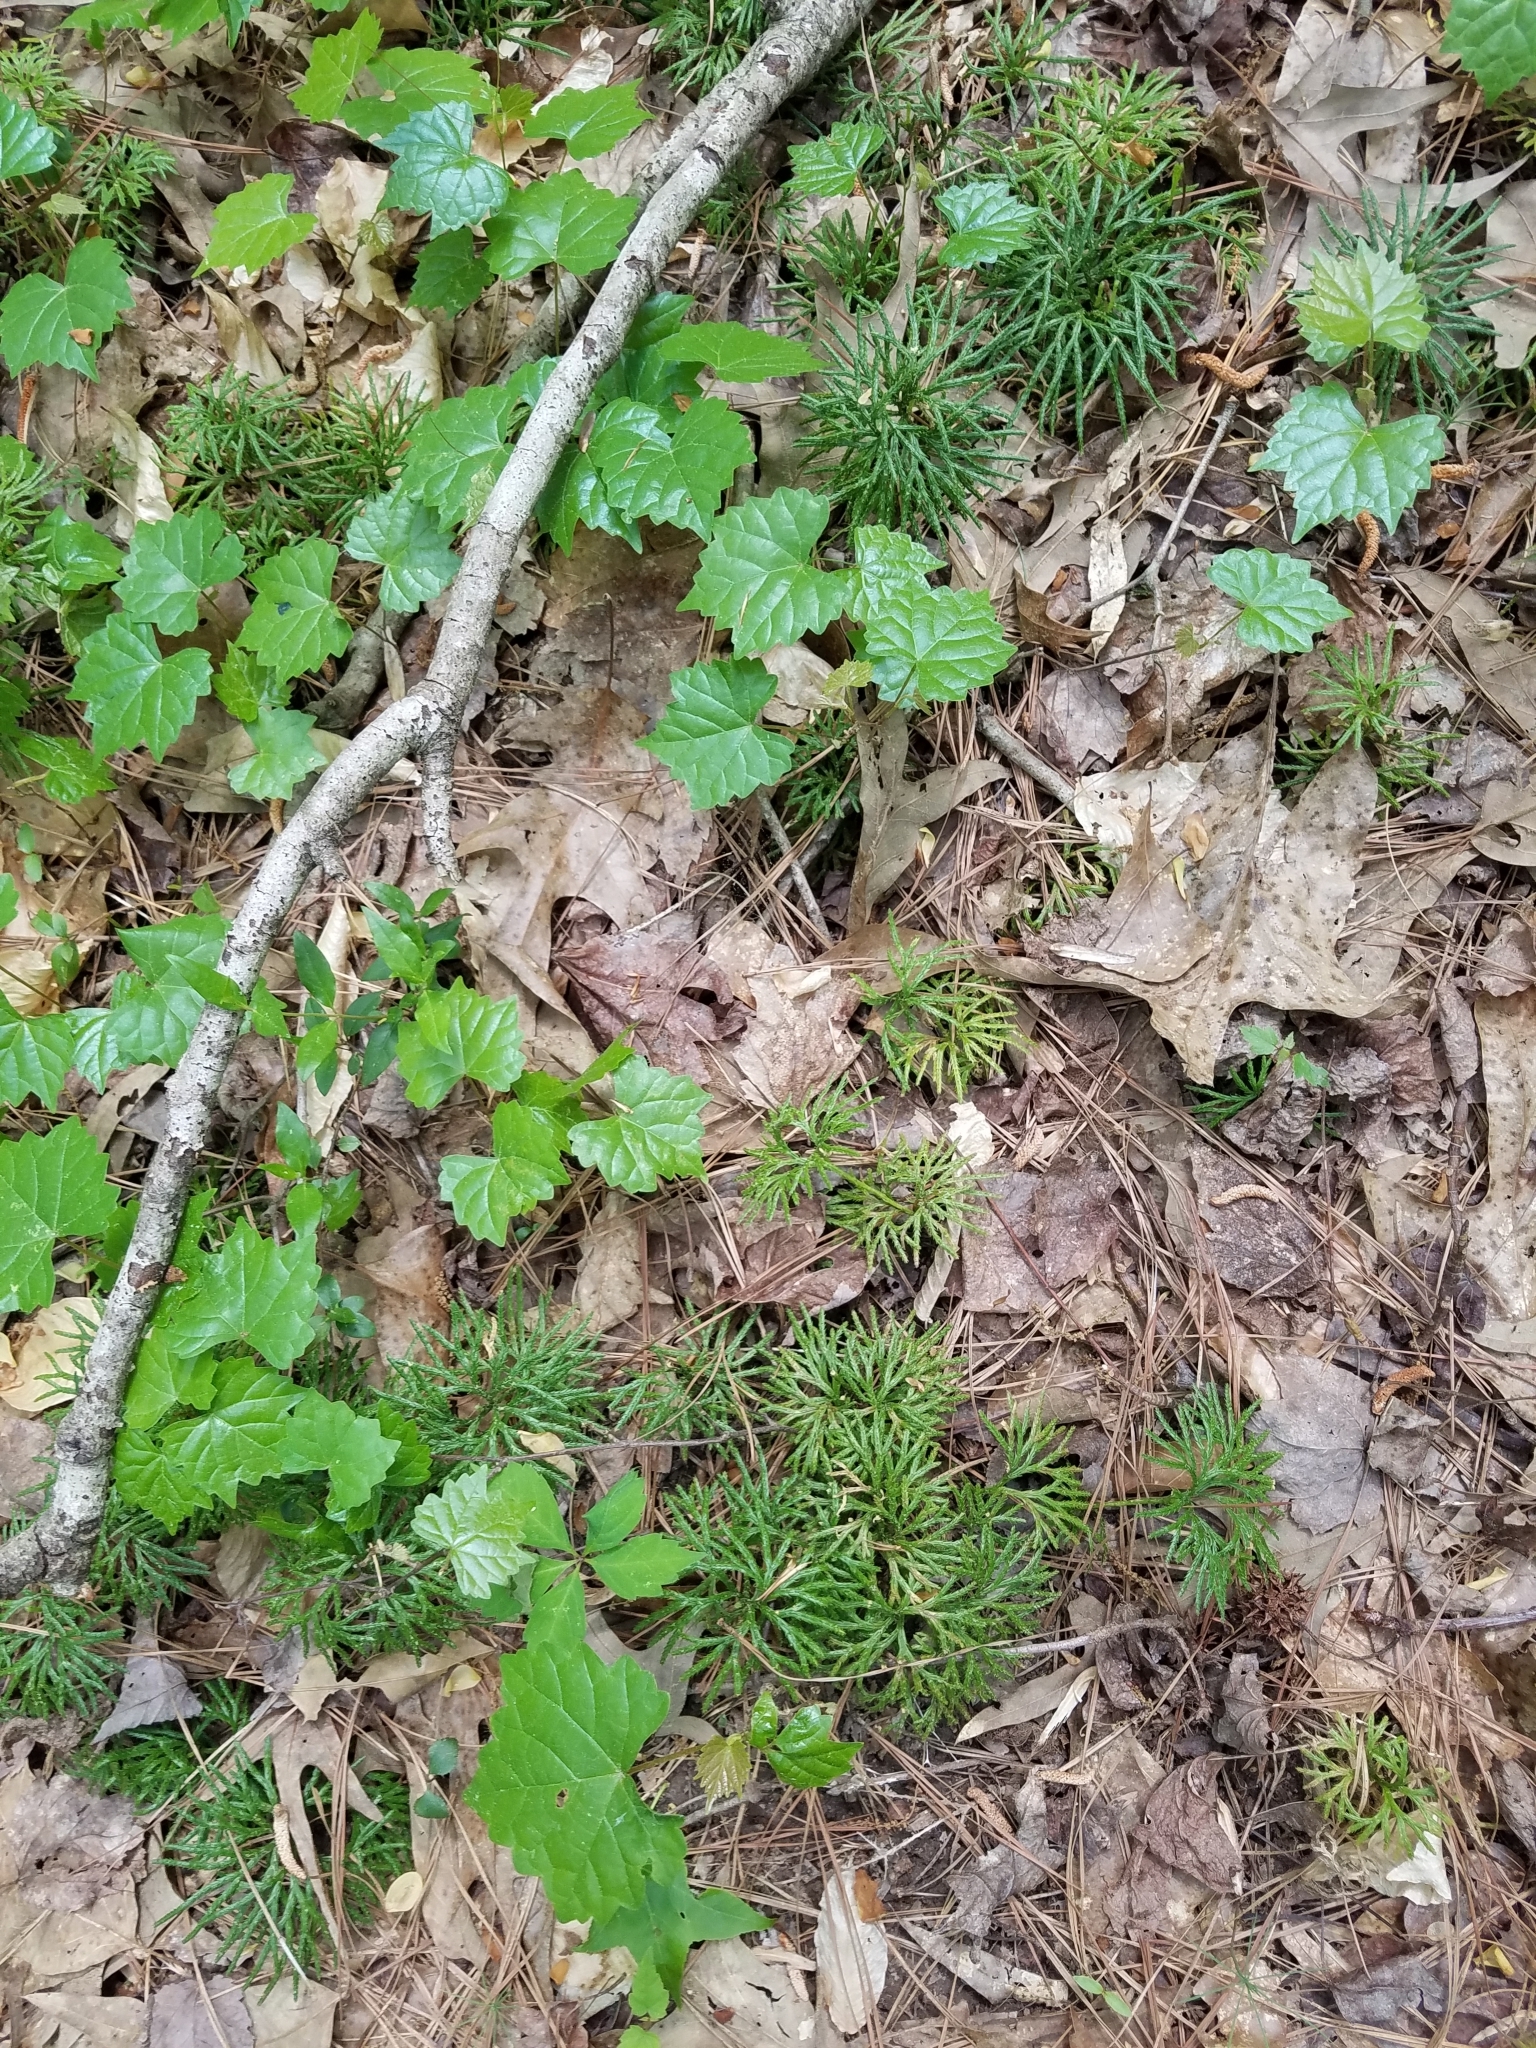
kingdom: Plantae
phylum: Tracheophyta
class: Lycopodiopsida
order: Lycopodiales
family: Lycopodiaceae
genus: Diphasiastrum
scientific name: Diphasiastrum digitatum
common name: Southern running-pine
